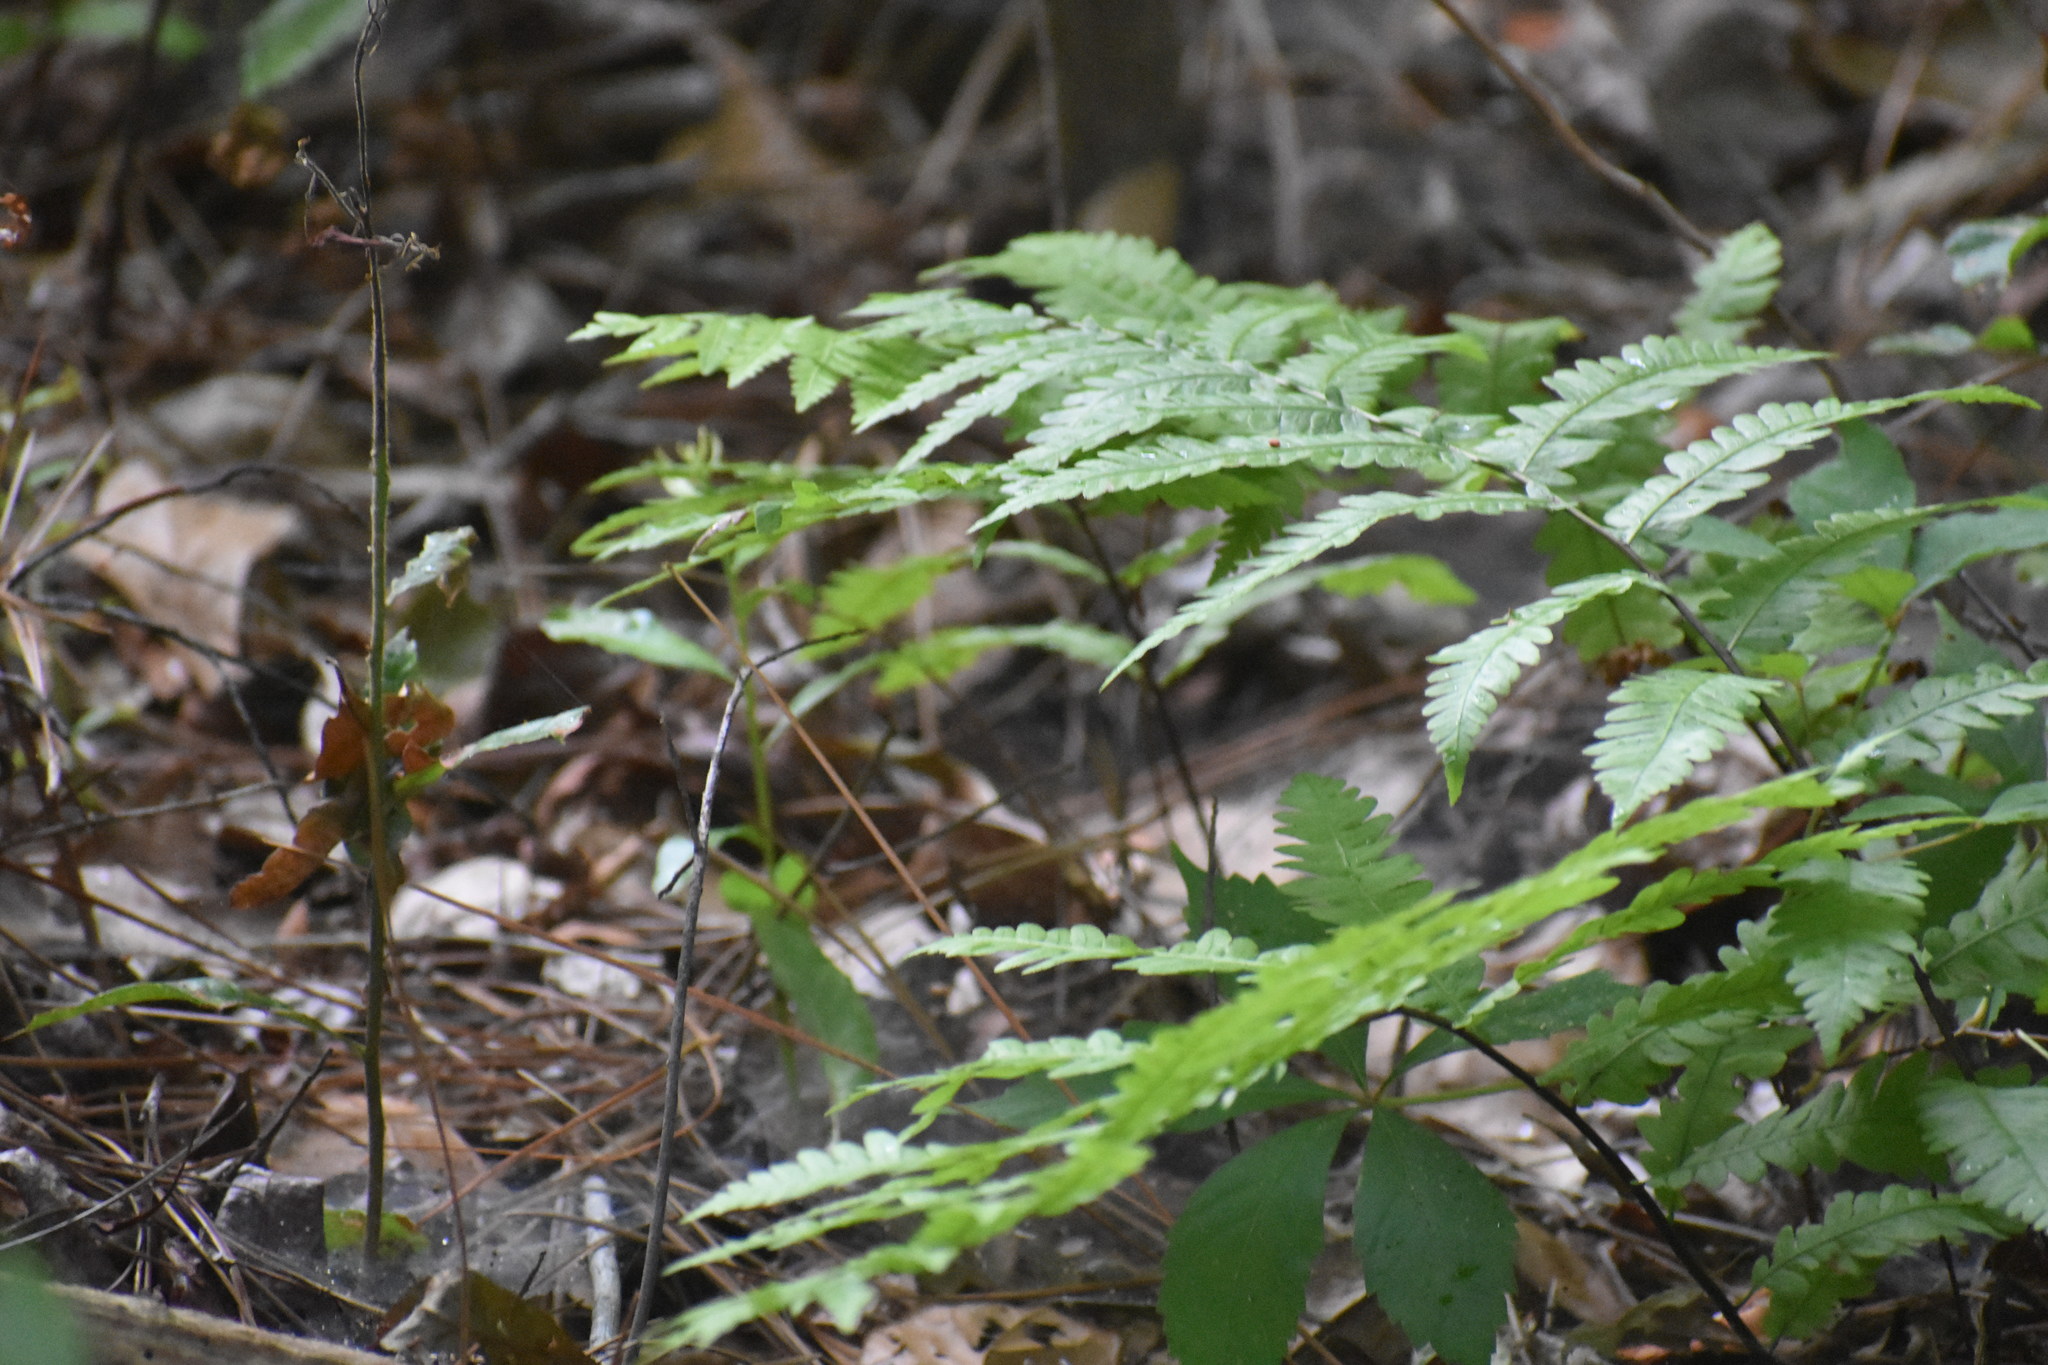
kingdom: Plantae
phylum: Tracheophyta
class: Polypodiopsida
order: Polypodiales
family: Blechnaceae
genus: Anchistea
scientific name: Anchistea virginica
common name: Virginia chain fern
